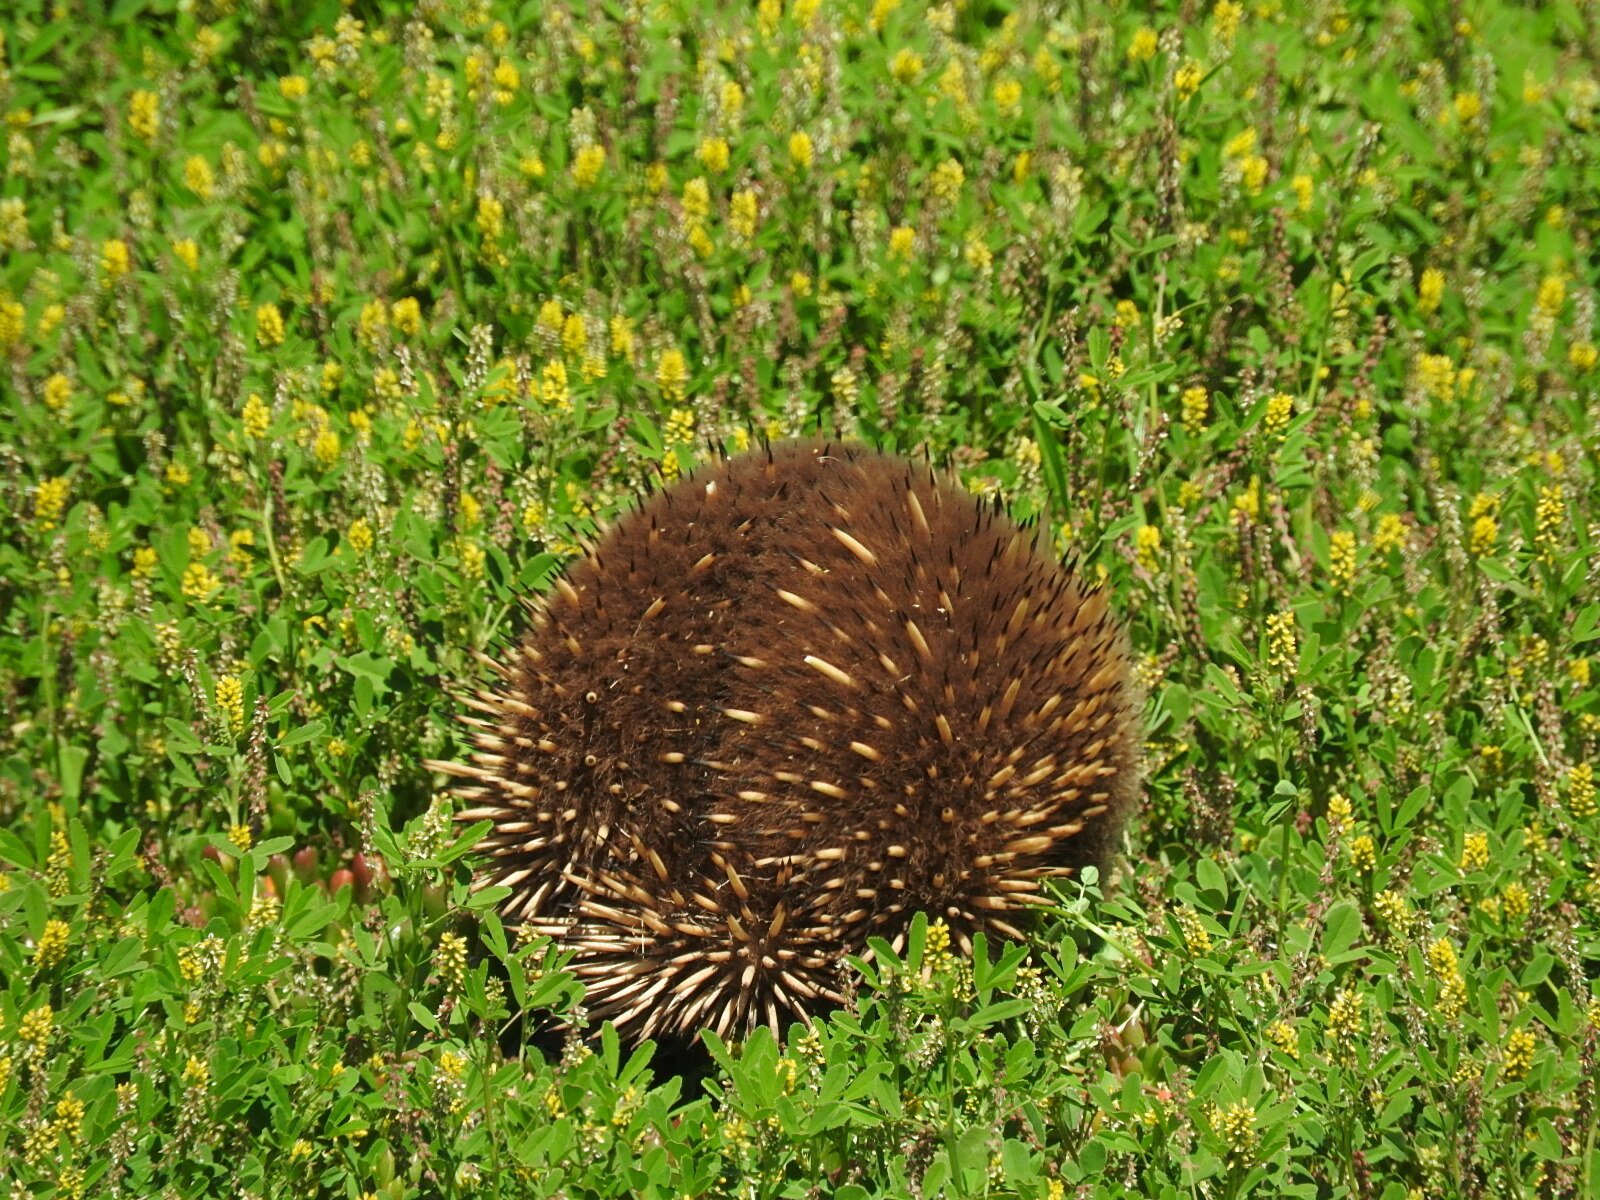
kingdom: Animalia
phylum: Chordata
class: Mammalia
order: Monotremata
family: Tachyglossidae
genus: Tachyglossus
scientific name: Tachyglossus aculeatus
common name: Short-beaked echidna
